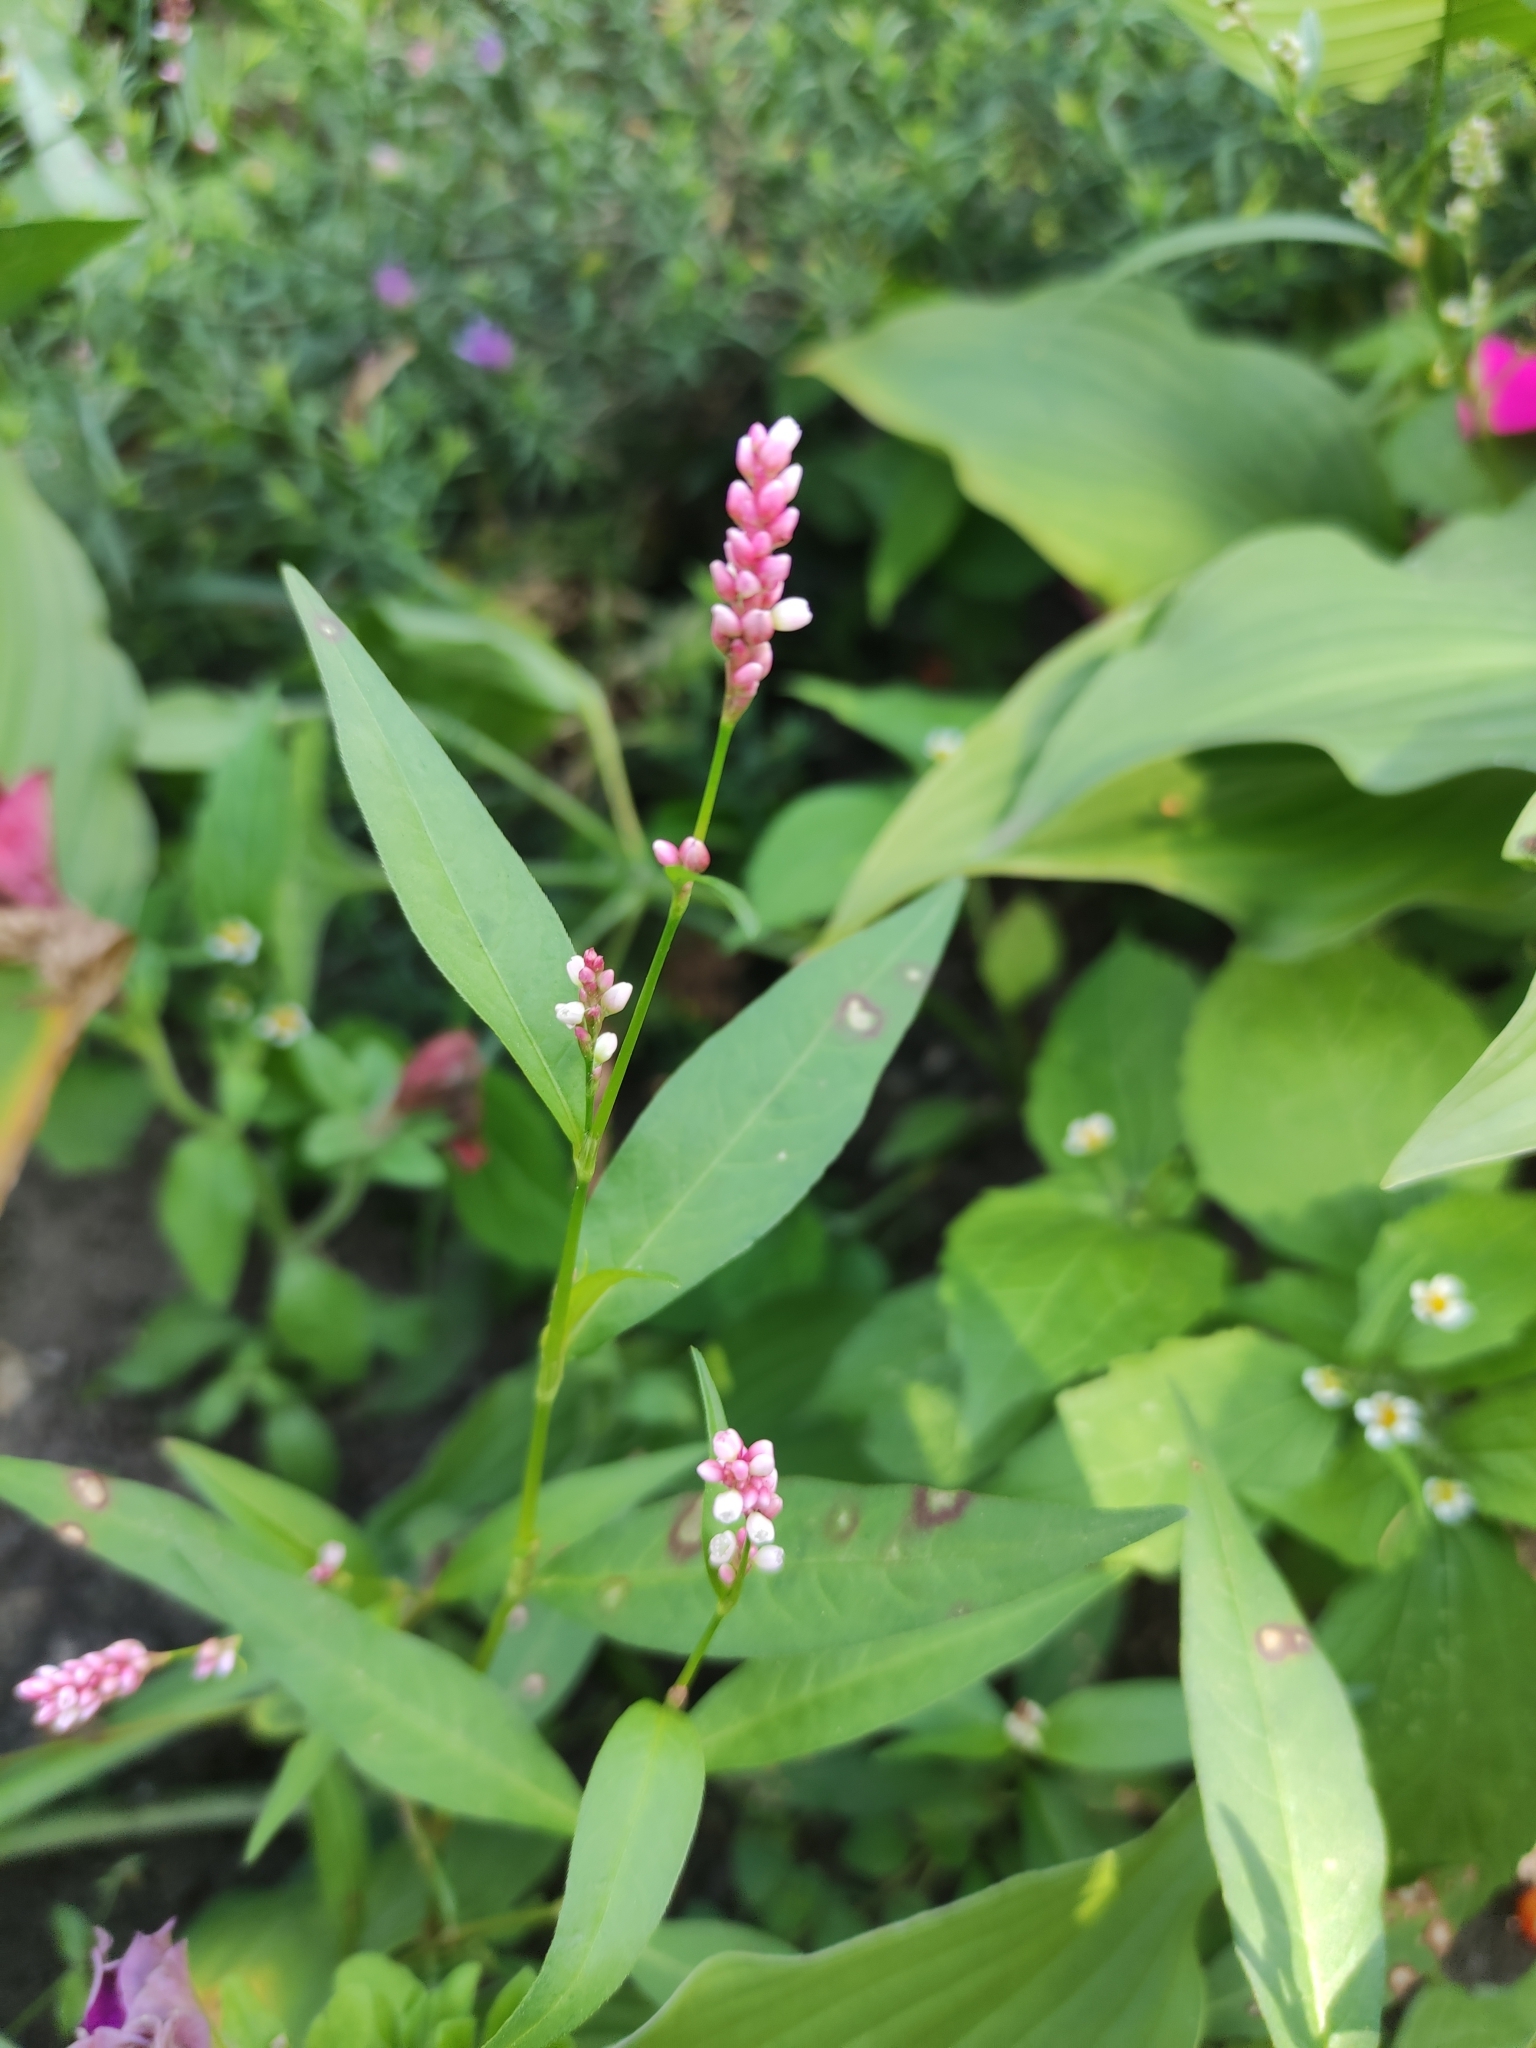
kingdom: Plantae
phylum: Tracheophyta
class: Magnoliopsida
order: Caryophyllales
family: Polygonaceae
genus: Persicaria
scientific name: Persicaria maculosa
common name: Redshank
